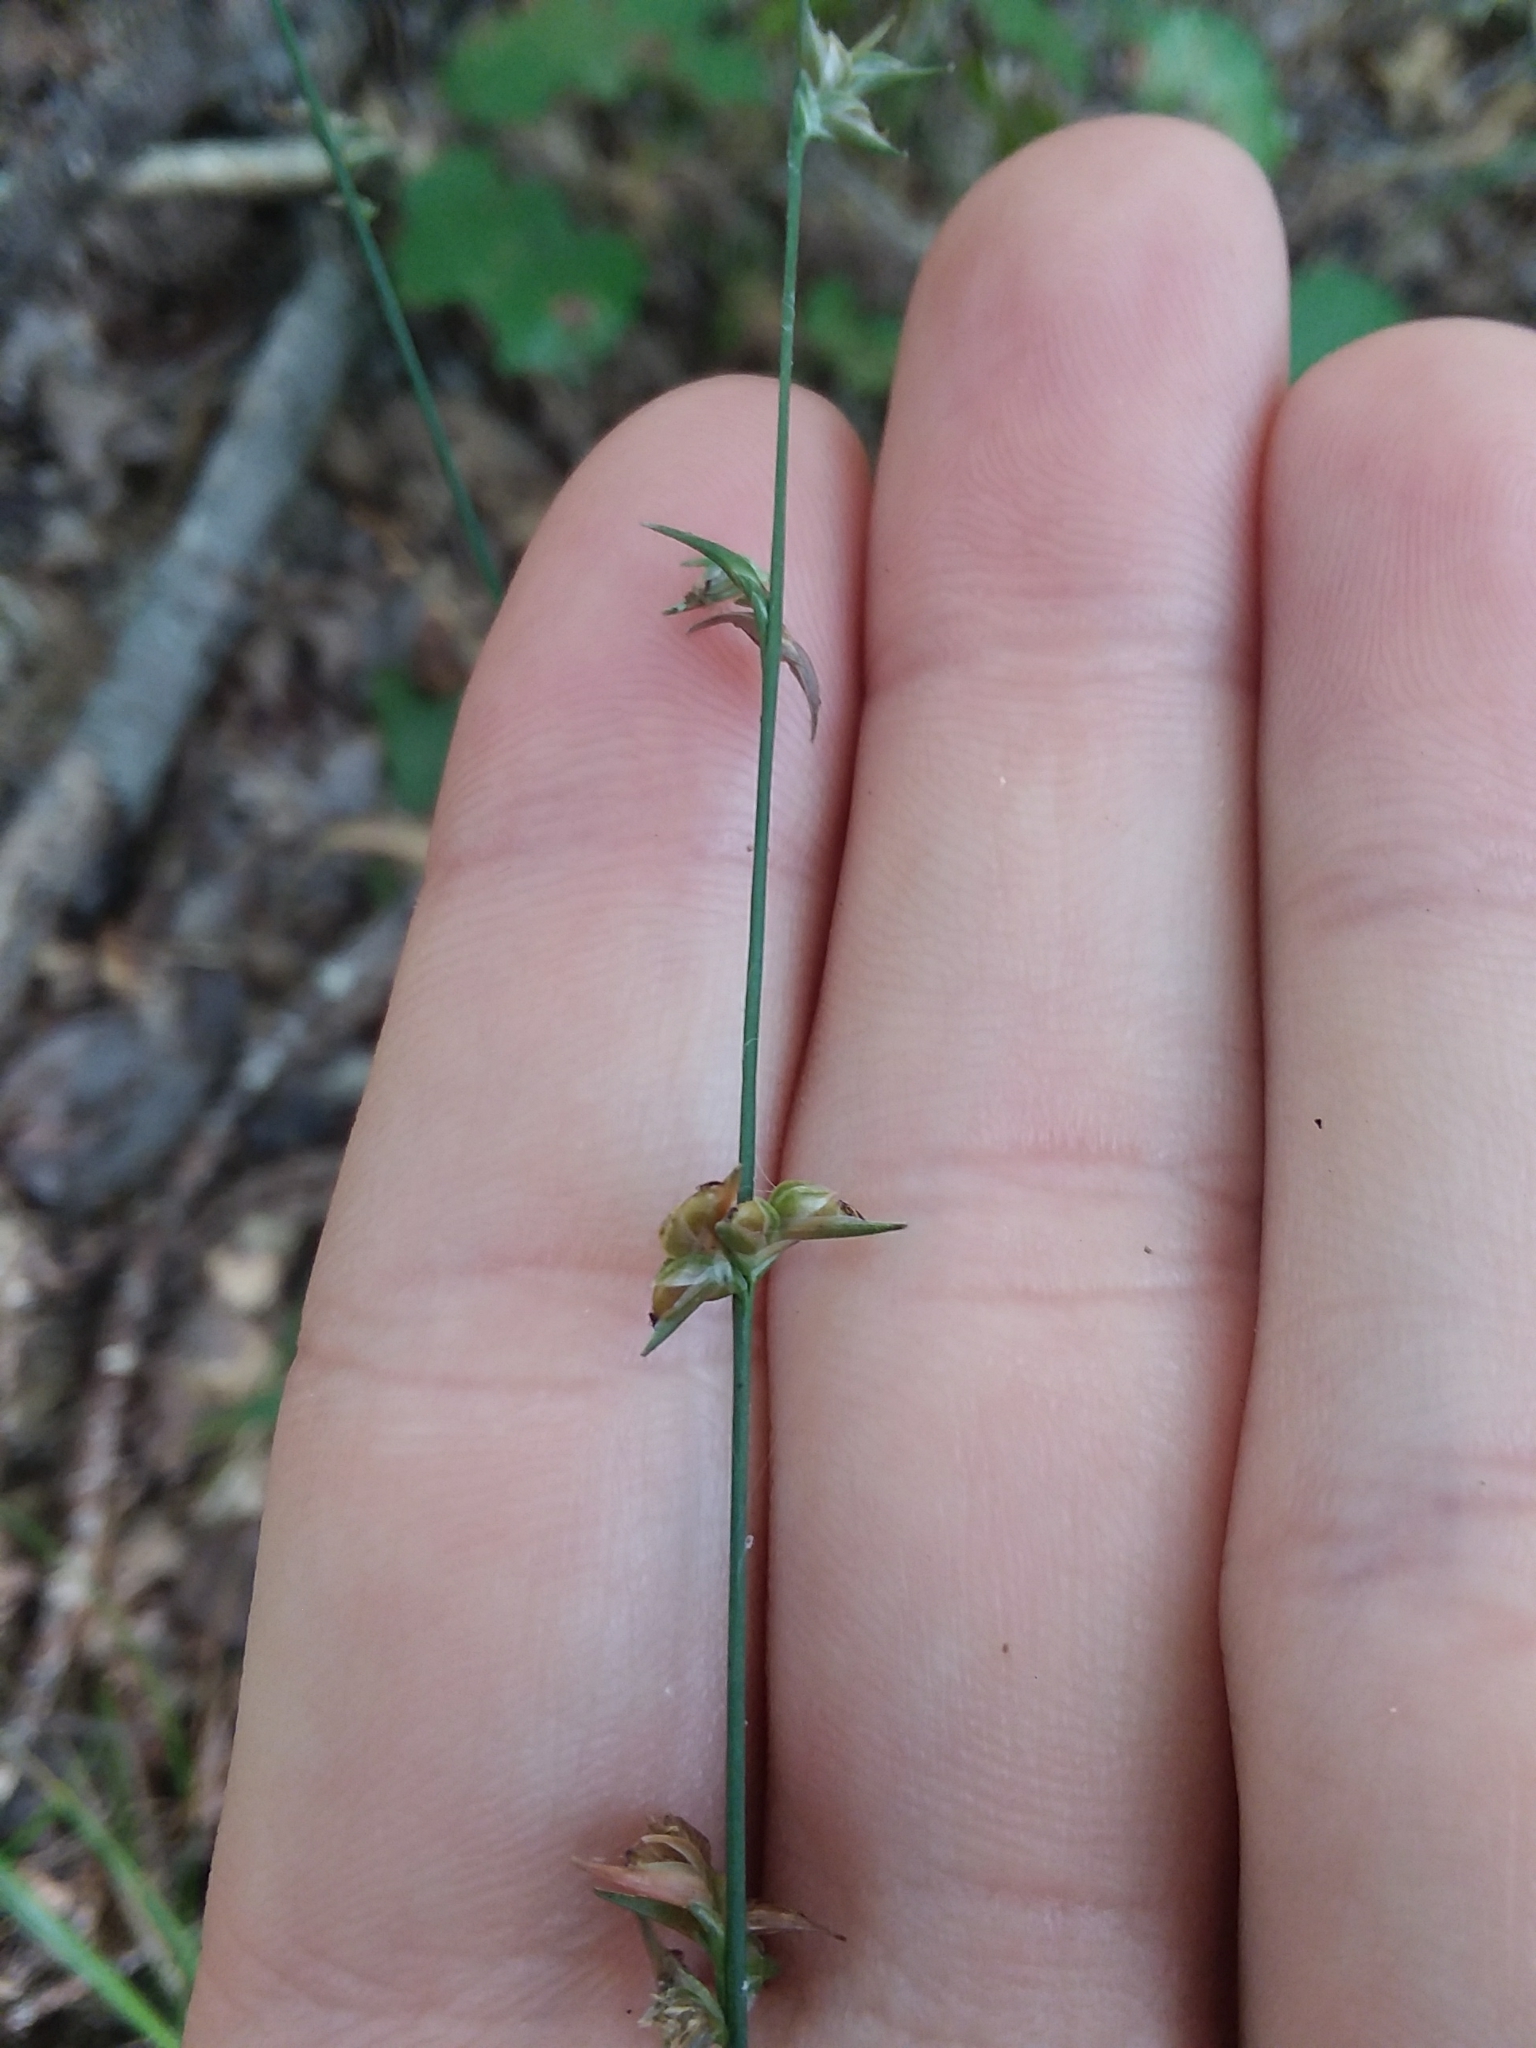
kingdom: Plantae
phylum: Tracheophyta
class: Liliopsida
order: Poales
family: Poaceae
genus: Chasmanthium
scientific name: Chasmanthium laxum
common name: Slender chasmanthium
